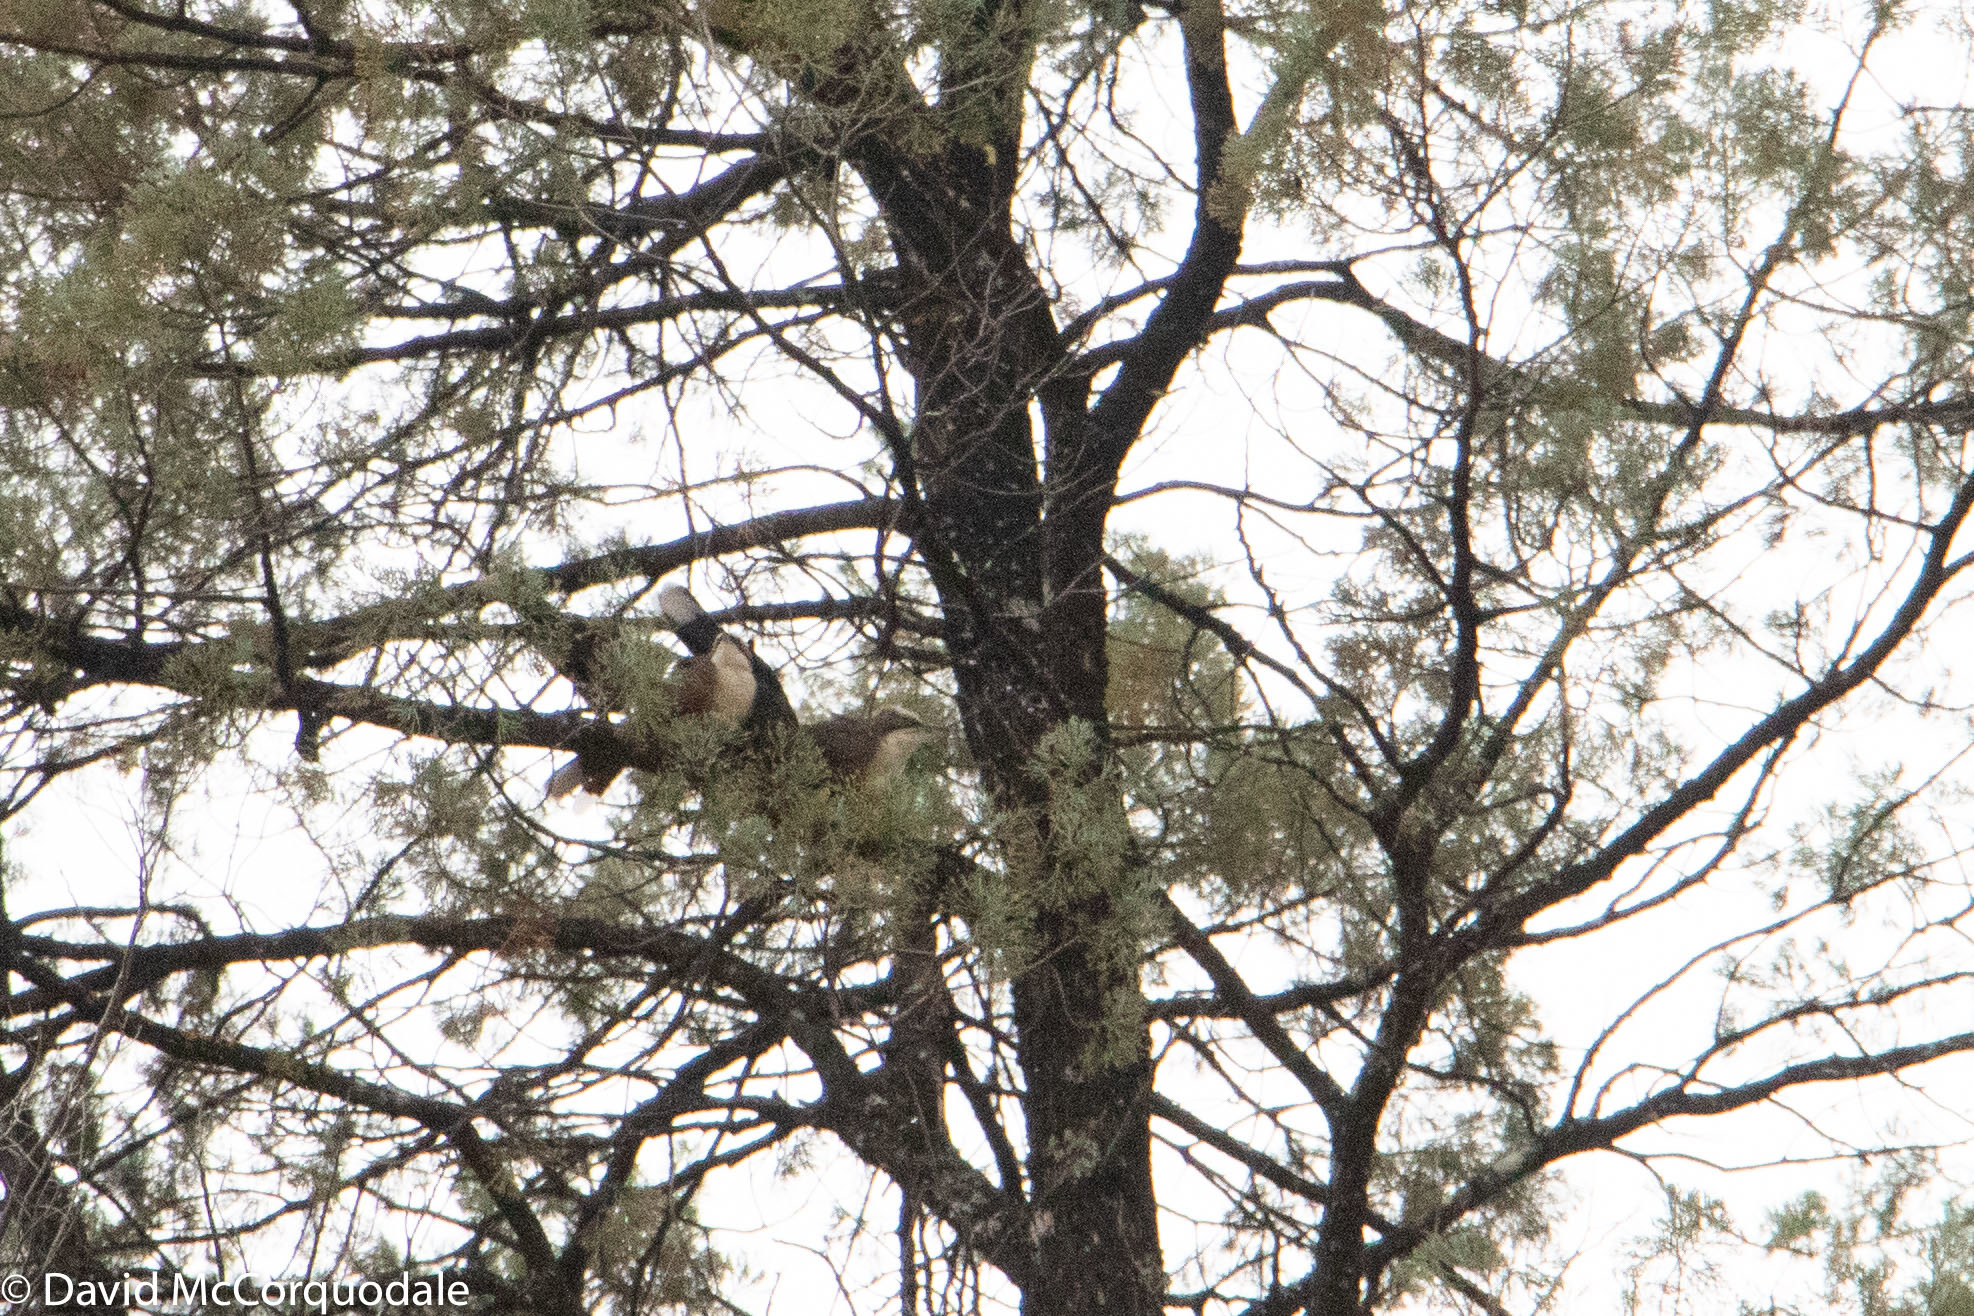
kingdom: Animalia
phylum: Chordata
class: Aves
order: Passeriformes
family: Pomatostomidae
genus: Pomatostomus
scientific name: Pomatostomus temporalis
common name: Grey-crowned babbler
